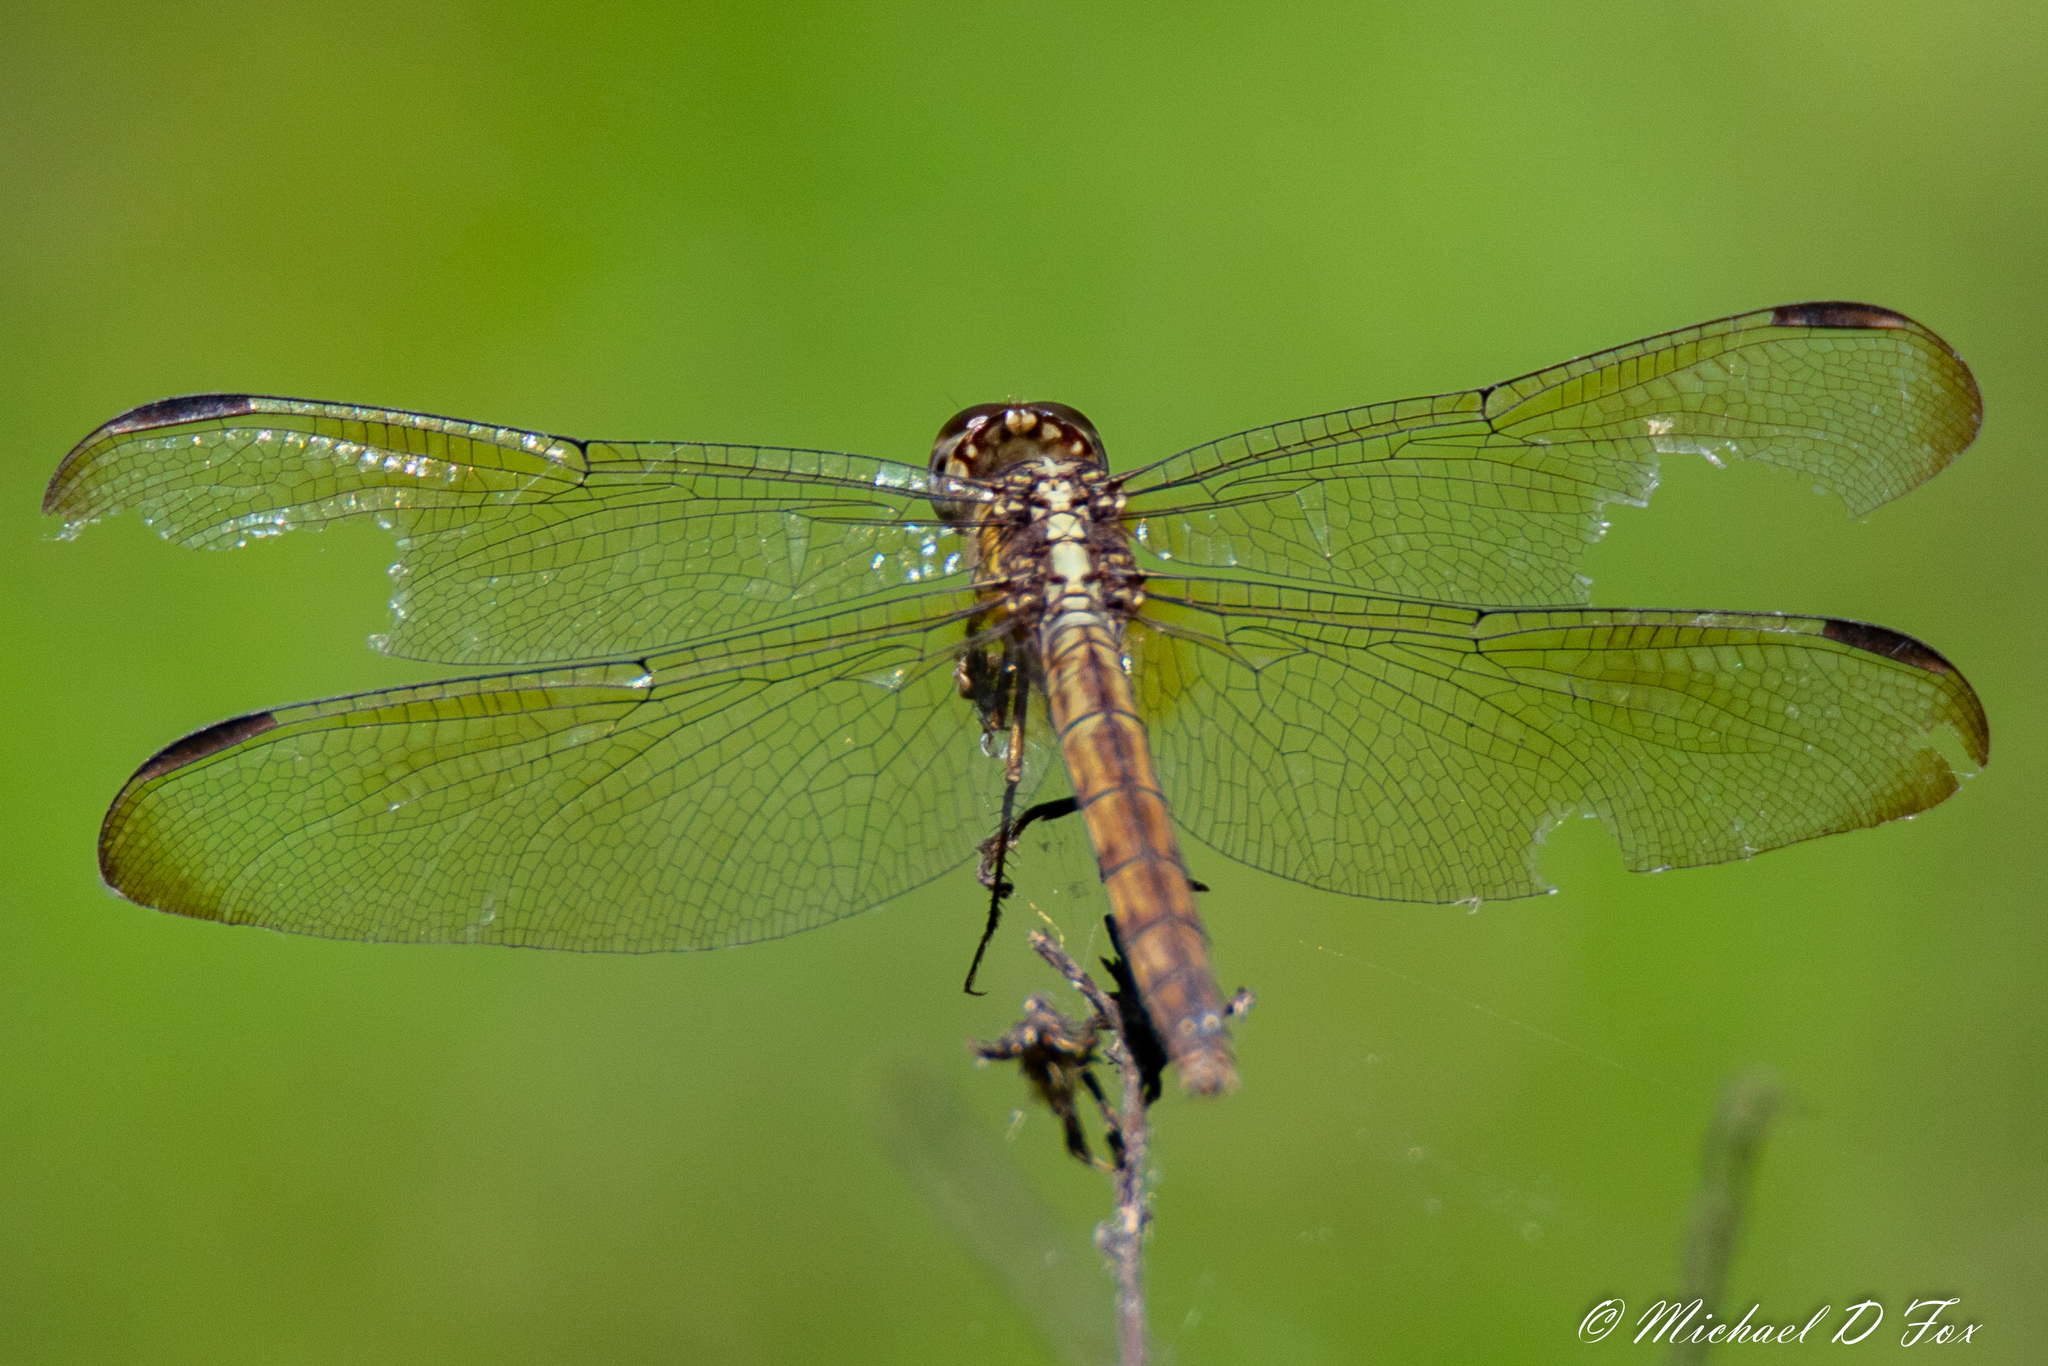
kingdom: Animalia
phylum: Arthropoda
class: Insecta
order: Odonata
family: Libellulidae
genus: Erythrodiplax
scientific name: Erythrodiplax umbrata
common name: Band-winged dragonlet
